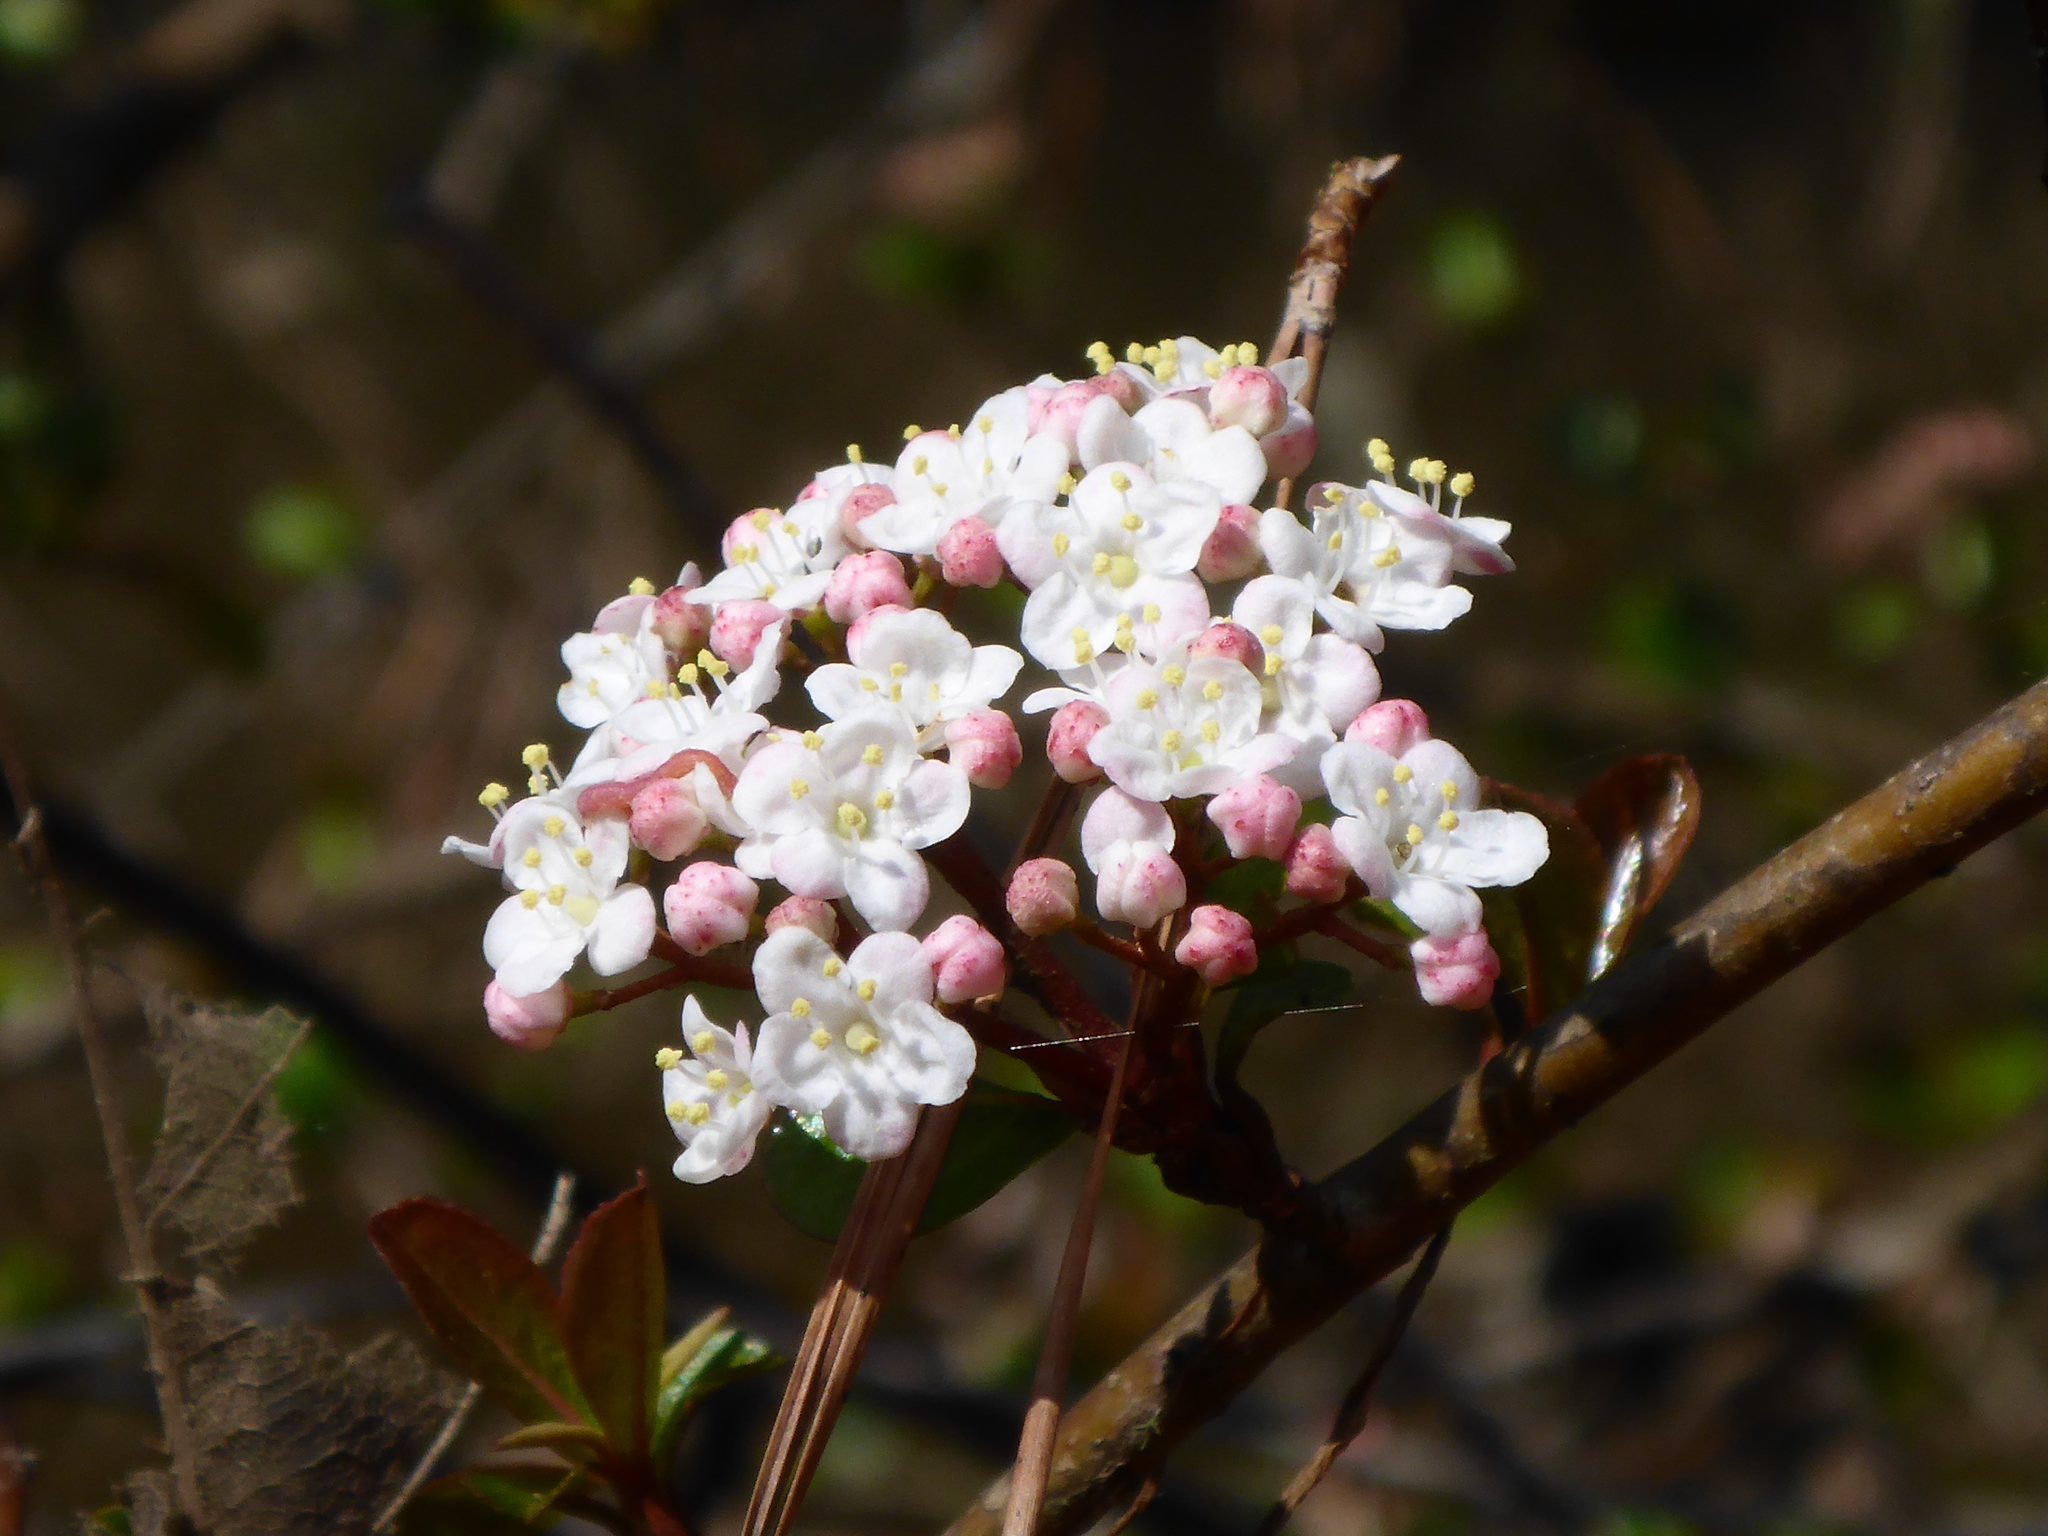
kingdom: Plantae
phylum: Tracheophyta
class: Magnoliopsida
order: Dipsacales
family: Viburnaceae
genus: Viburnum
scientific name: Viburnum obovatum
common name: Walter's viburnum
